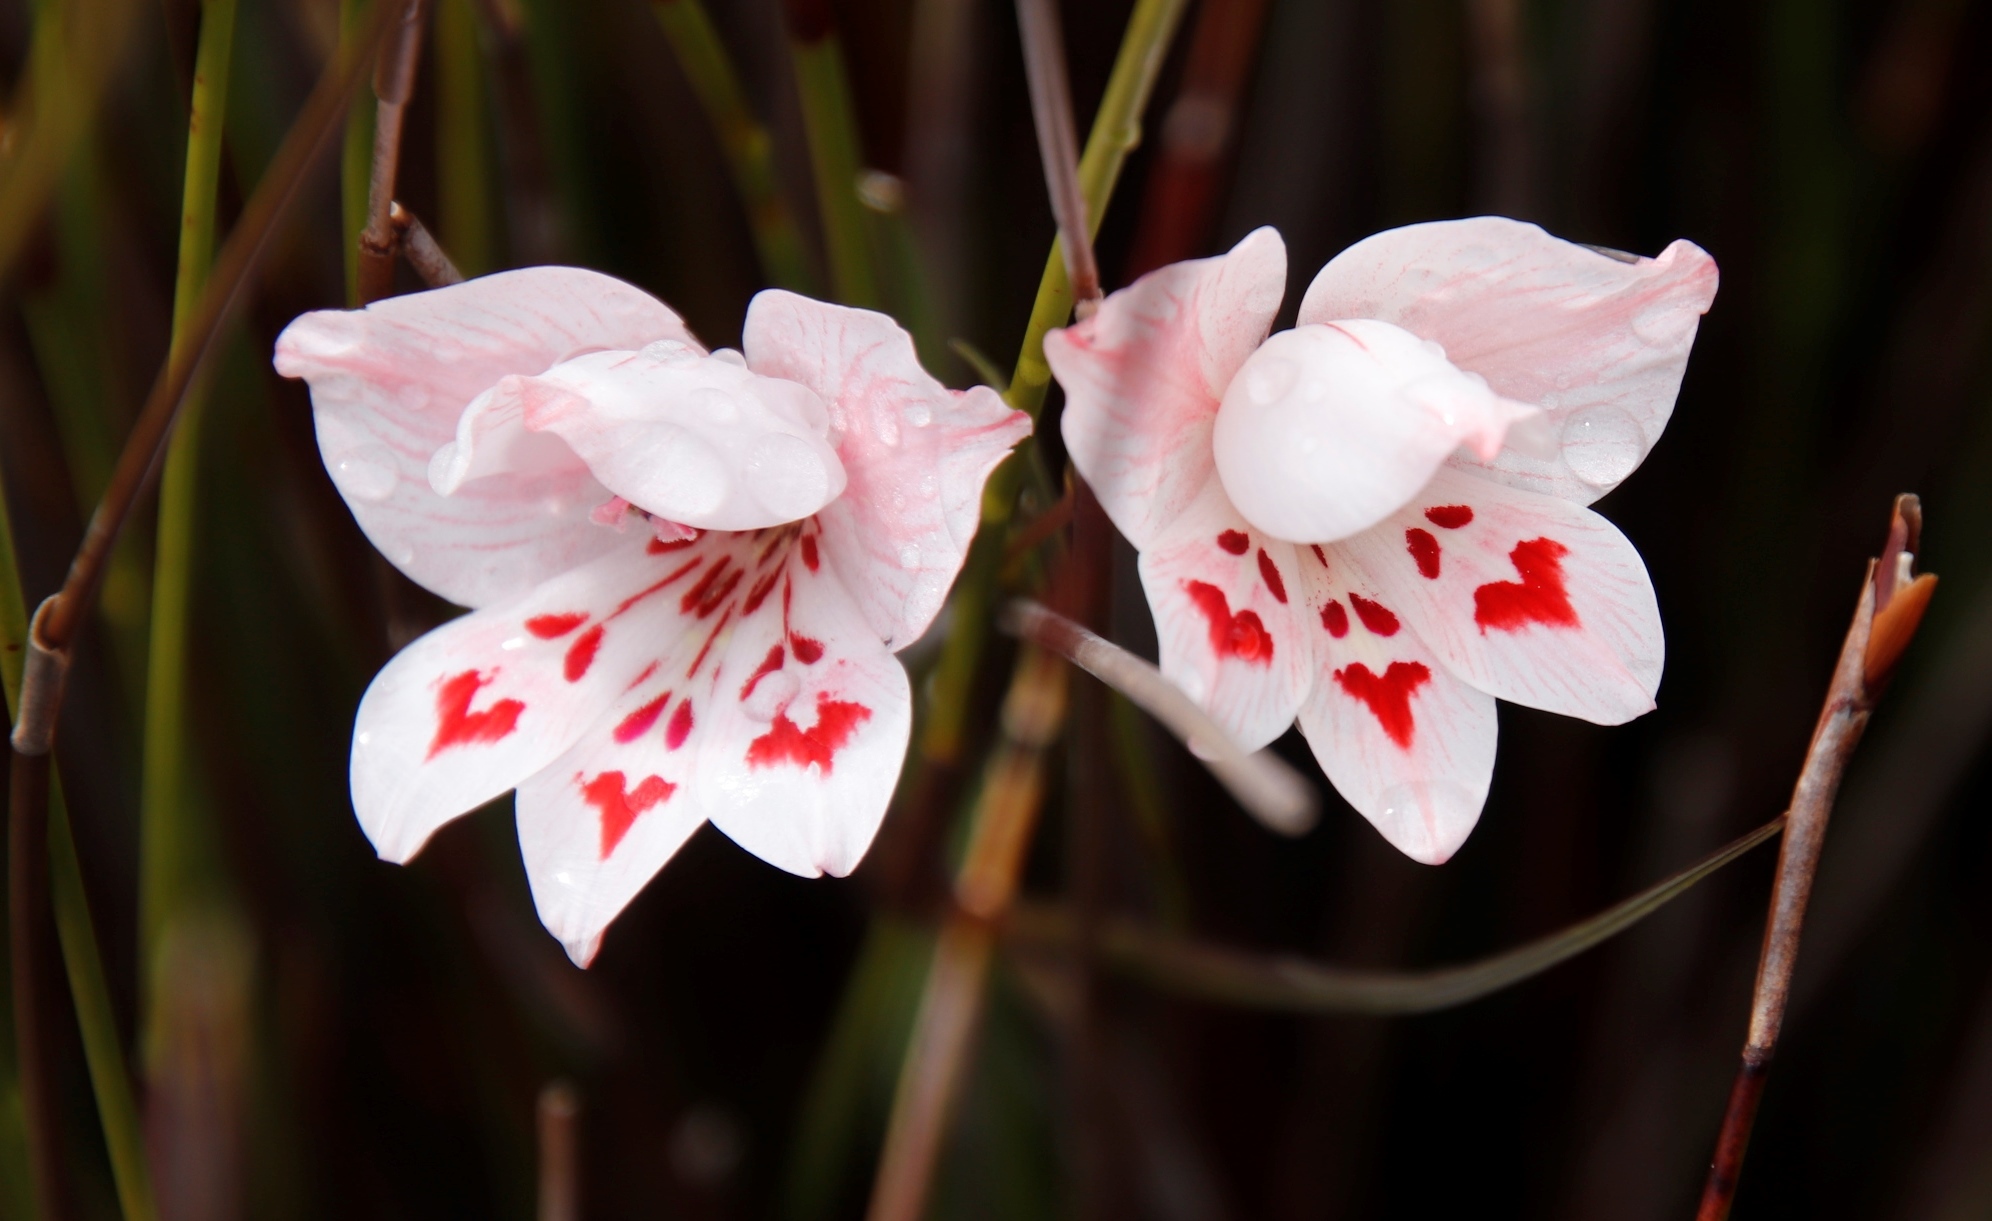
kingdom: Plantae
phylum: Tracheophyta
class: Liliopsida
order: Asparagales
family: Iridaceae
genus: Gladiolus
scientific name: Gladiolus debilis
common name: Painted-lady
